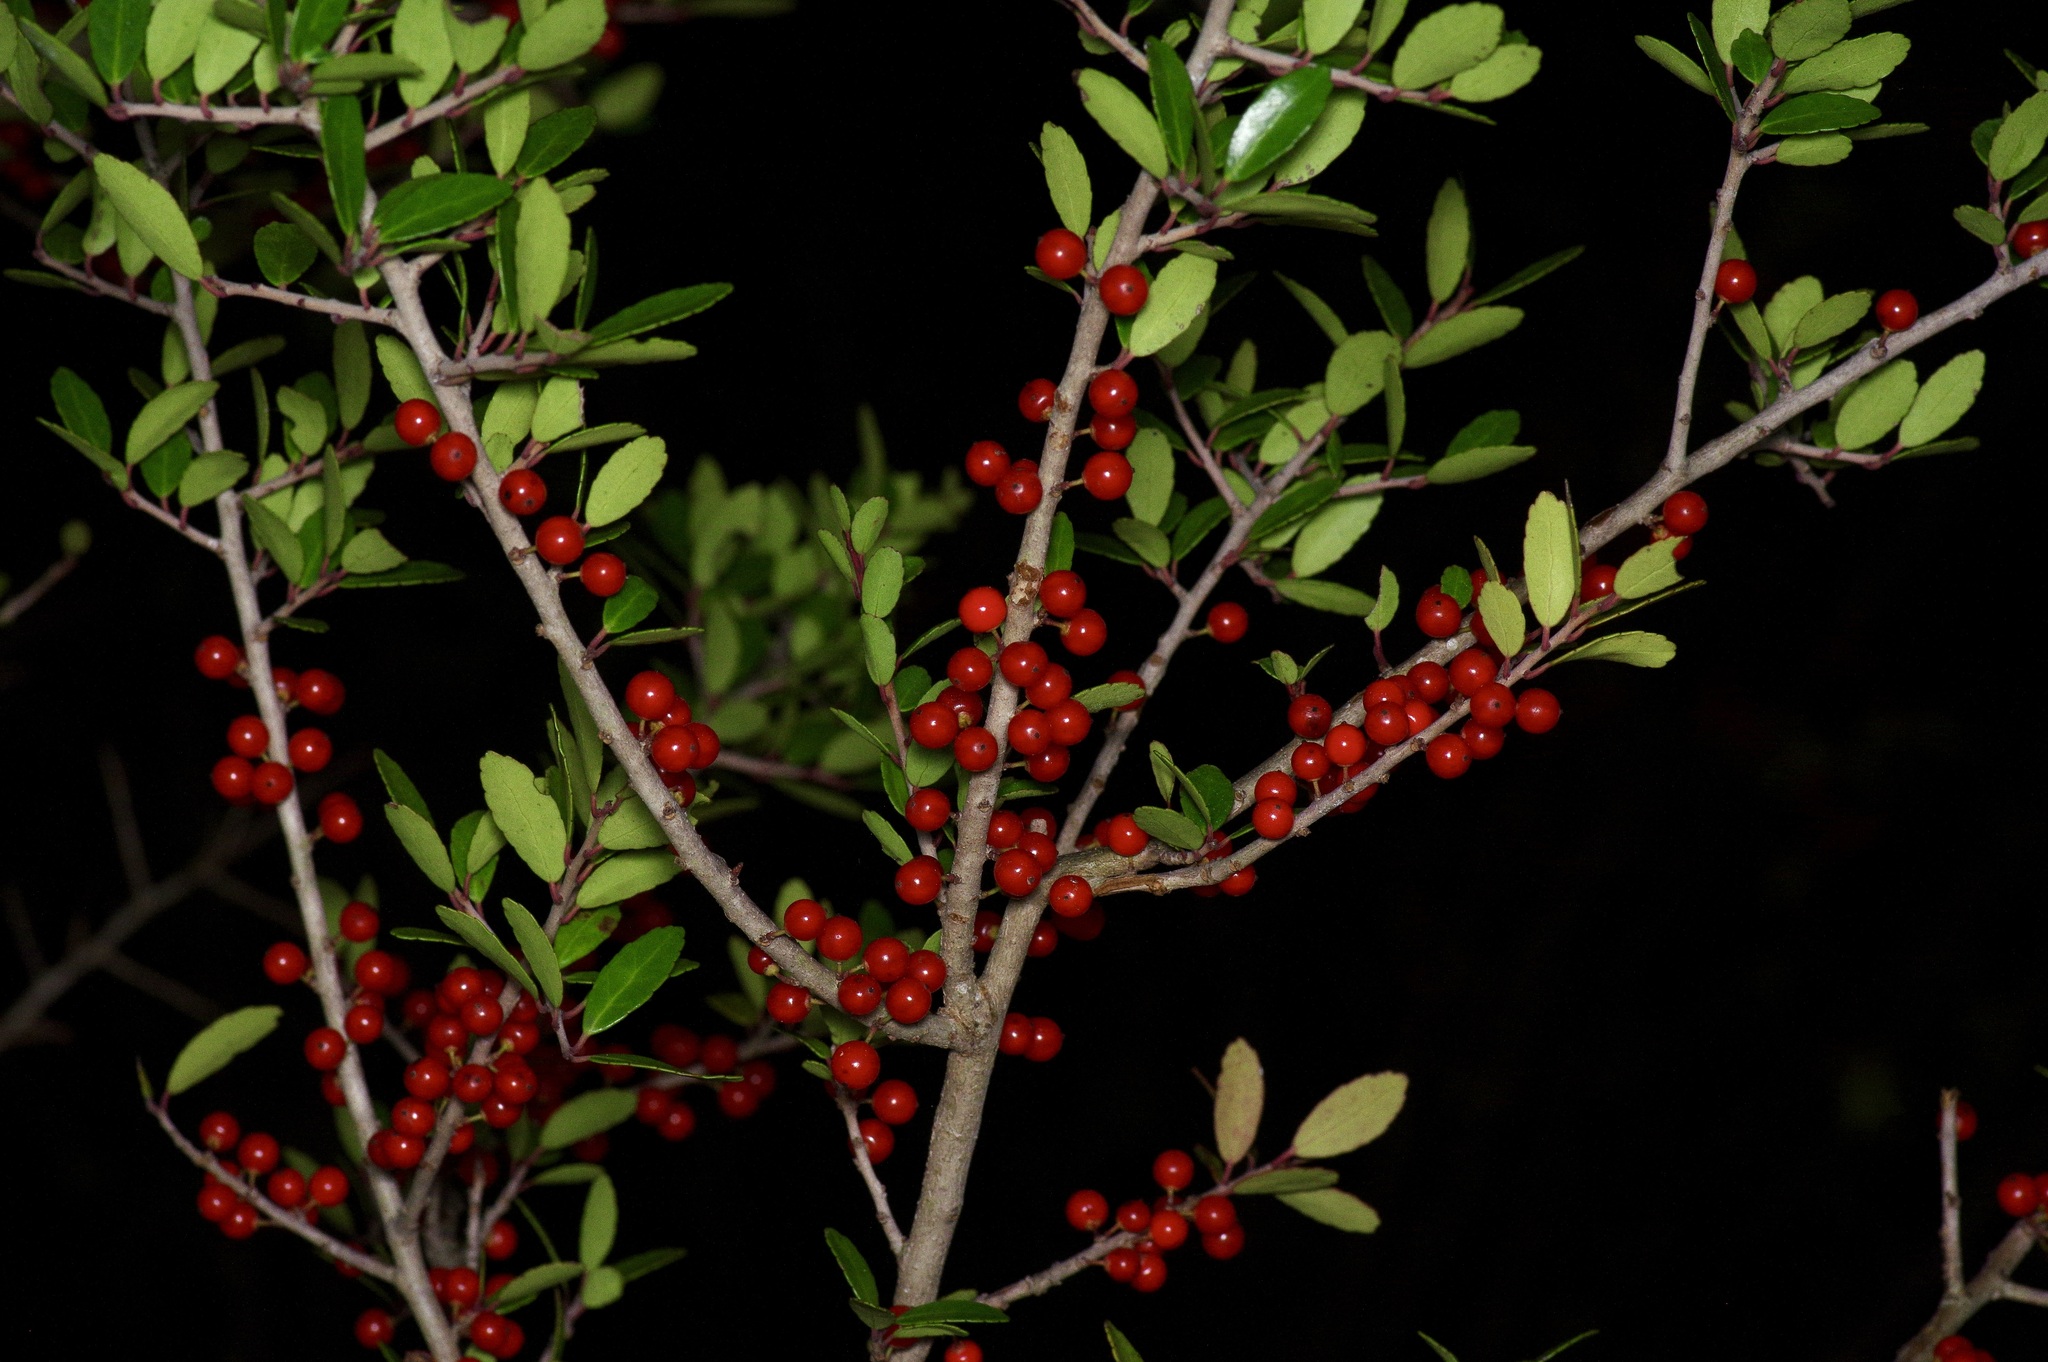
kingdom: Plantae
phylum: Tracheophyta
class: Magnoliopsida
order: Aquifoliales
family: Aquifoliaceae
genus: Ilex
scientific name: Ilex vomitoria
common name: Yaupon holly
